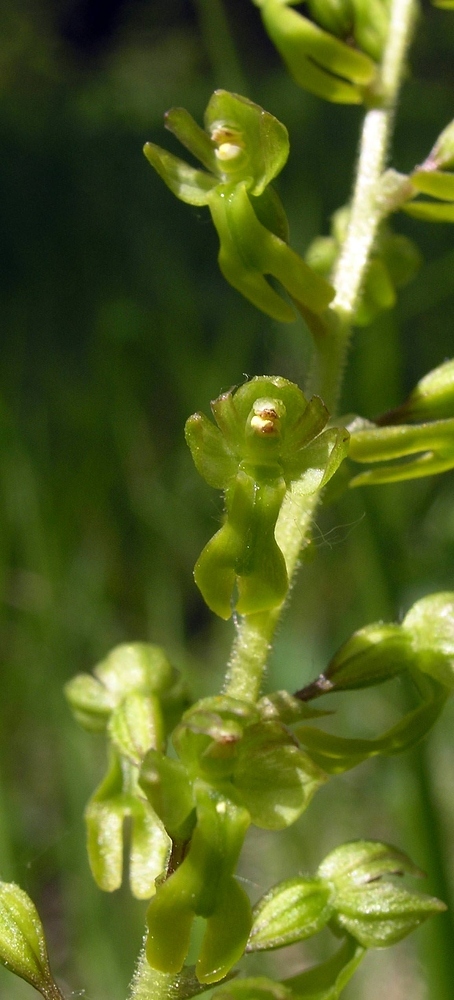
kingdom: Plantae
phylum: Tracheophyta
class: Liliopsida
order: Asparagales
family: Orchidaceae
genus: Neottia
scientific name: Neottia ovata
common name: Common twayblade
